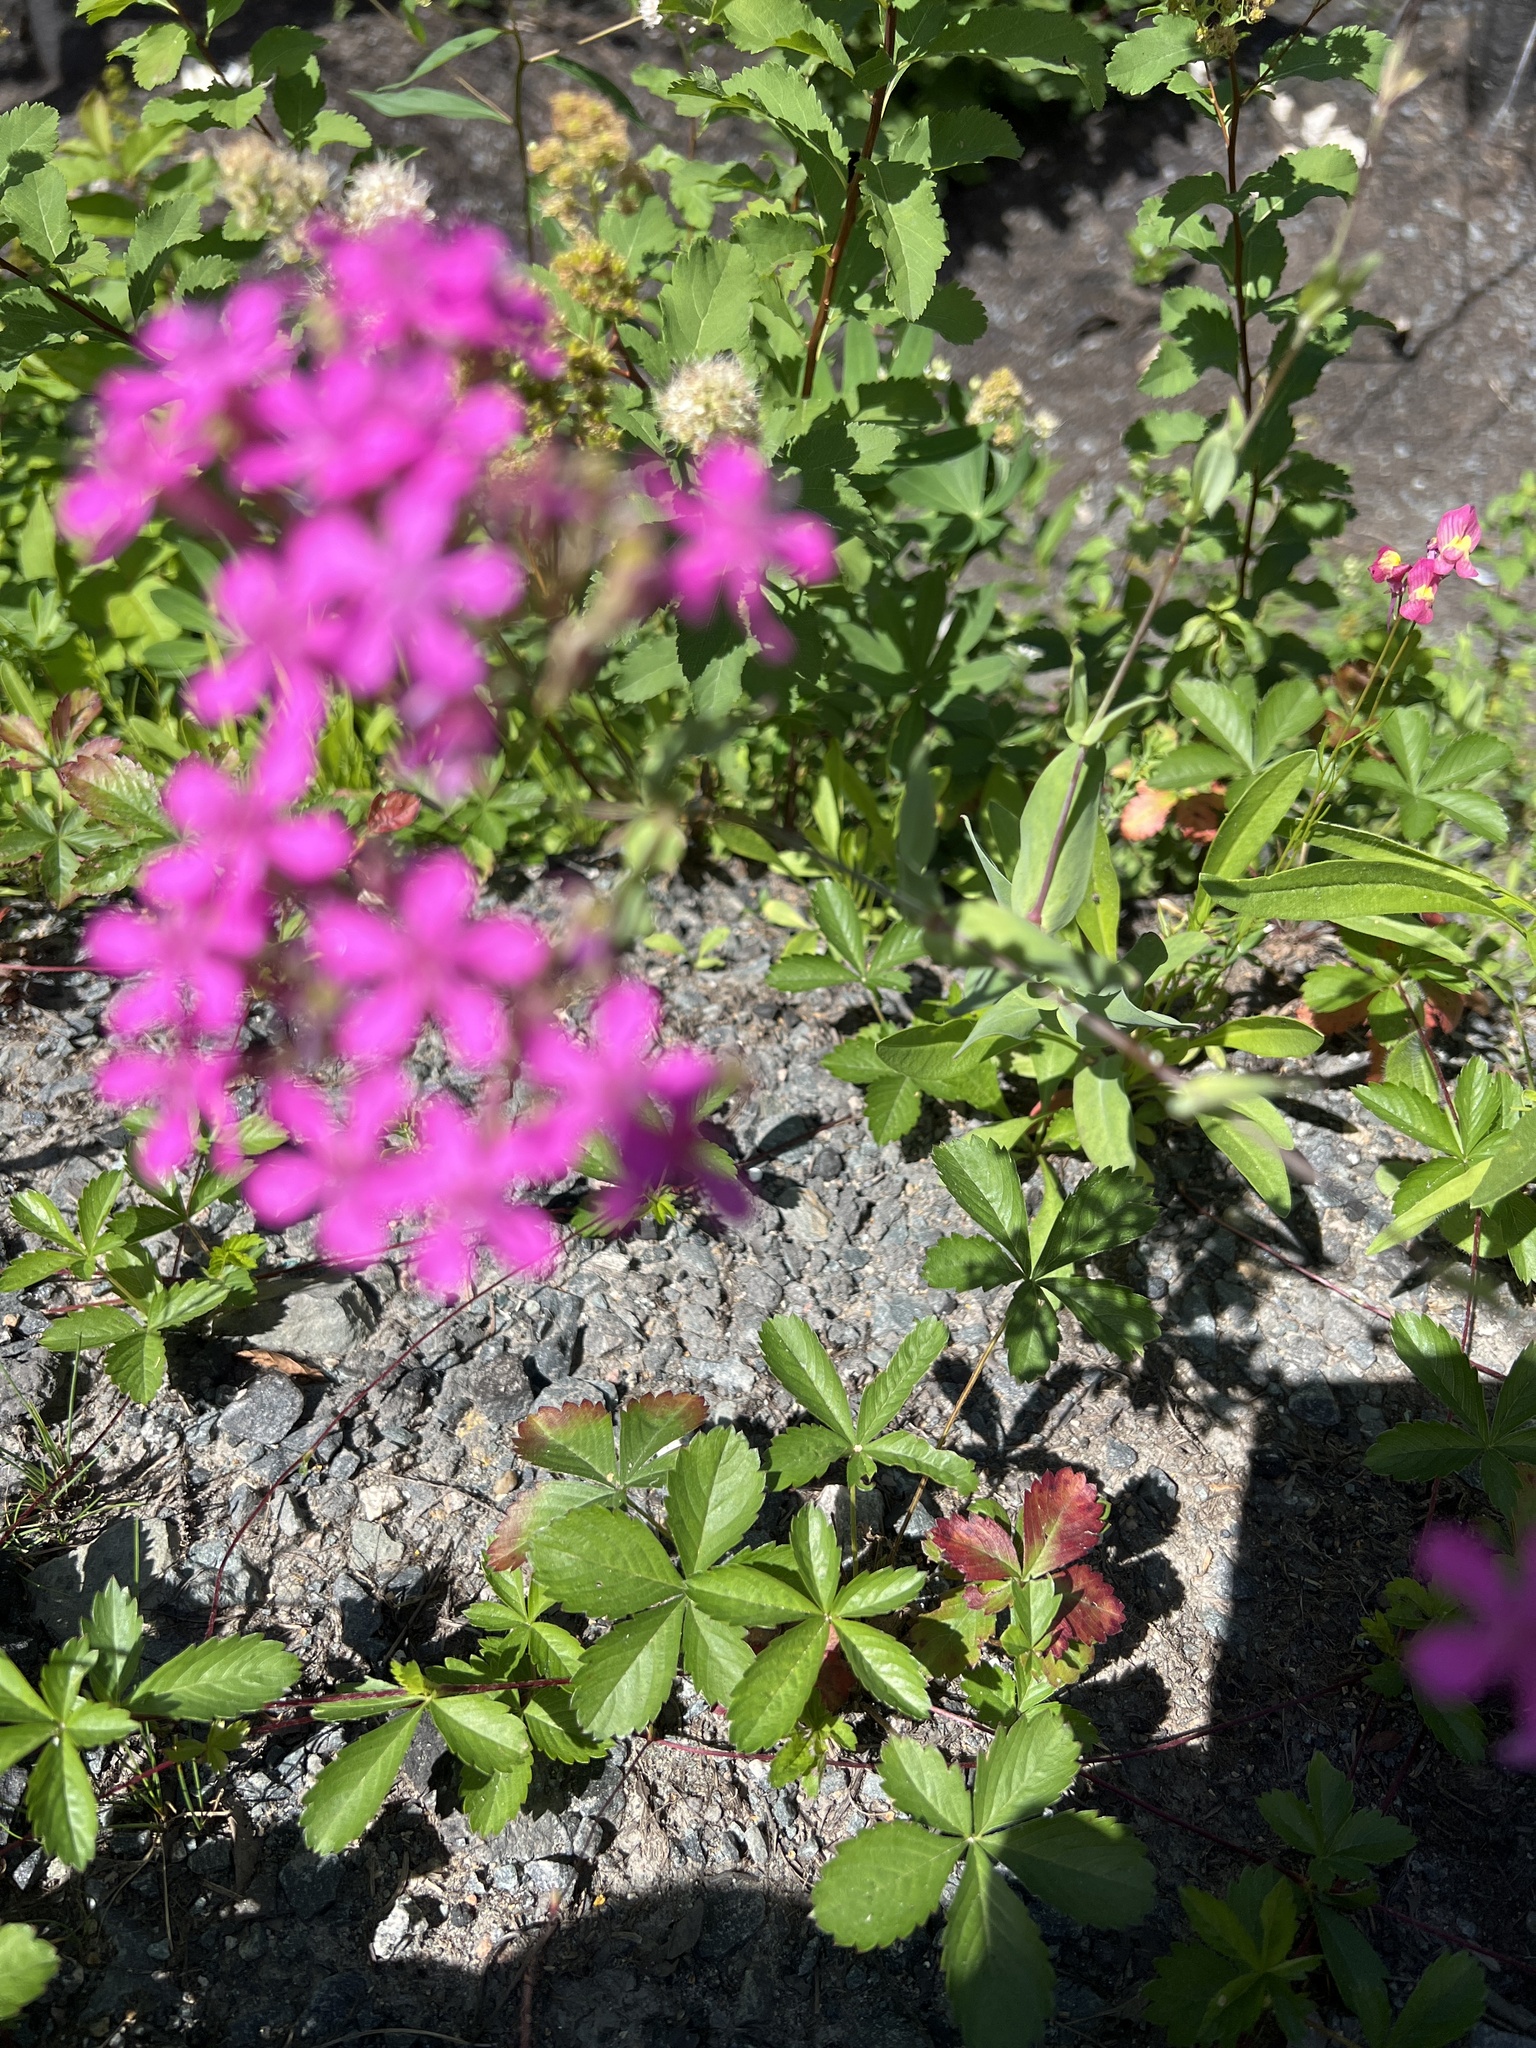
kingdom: Plantae
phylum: Tracheophyta
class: Magnoliopsida
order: Caryophyllales
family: Caryophyllaceae
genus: Atocion
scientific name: Atocion armeria
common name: Sweet william catchfly
